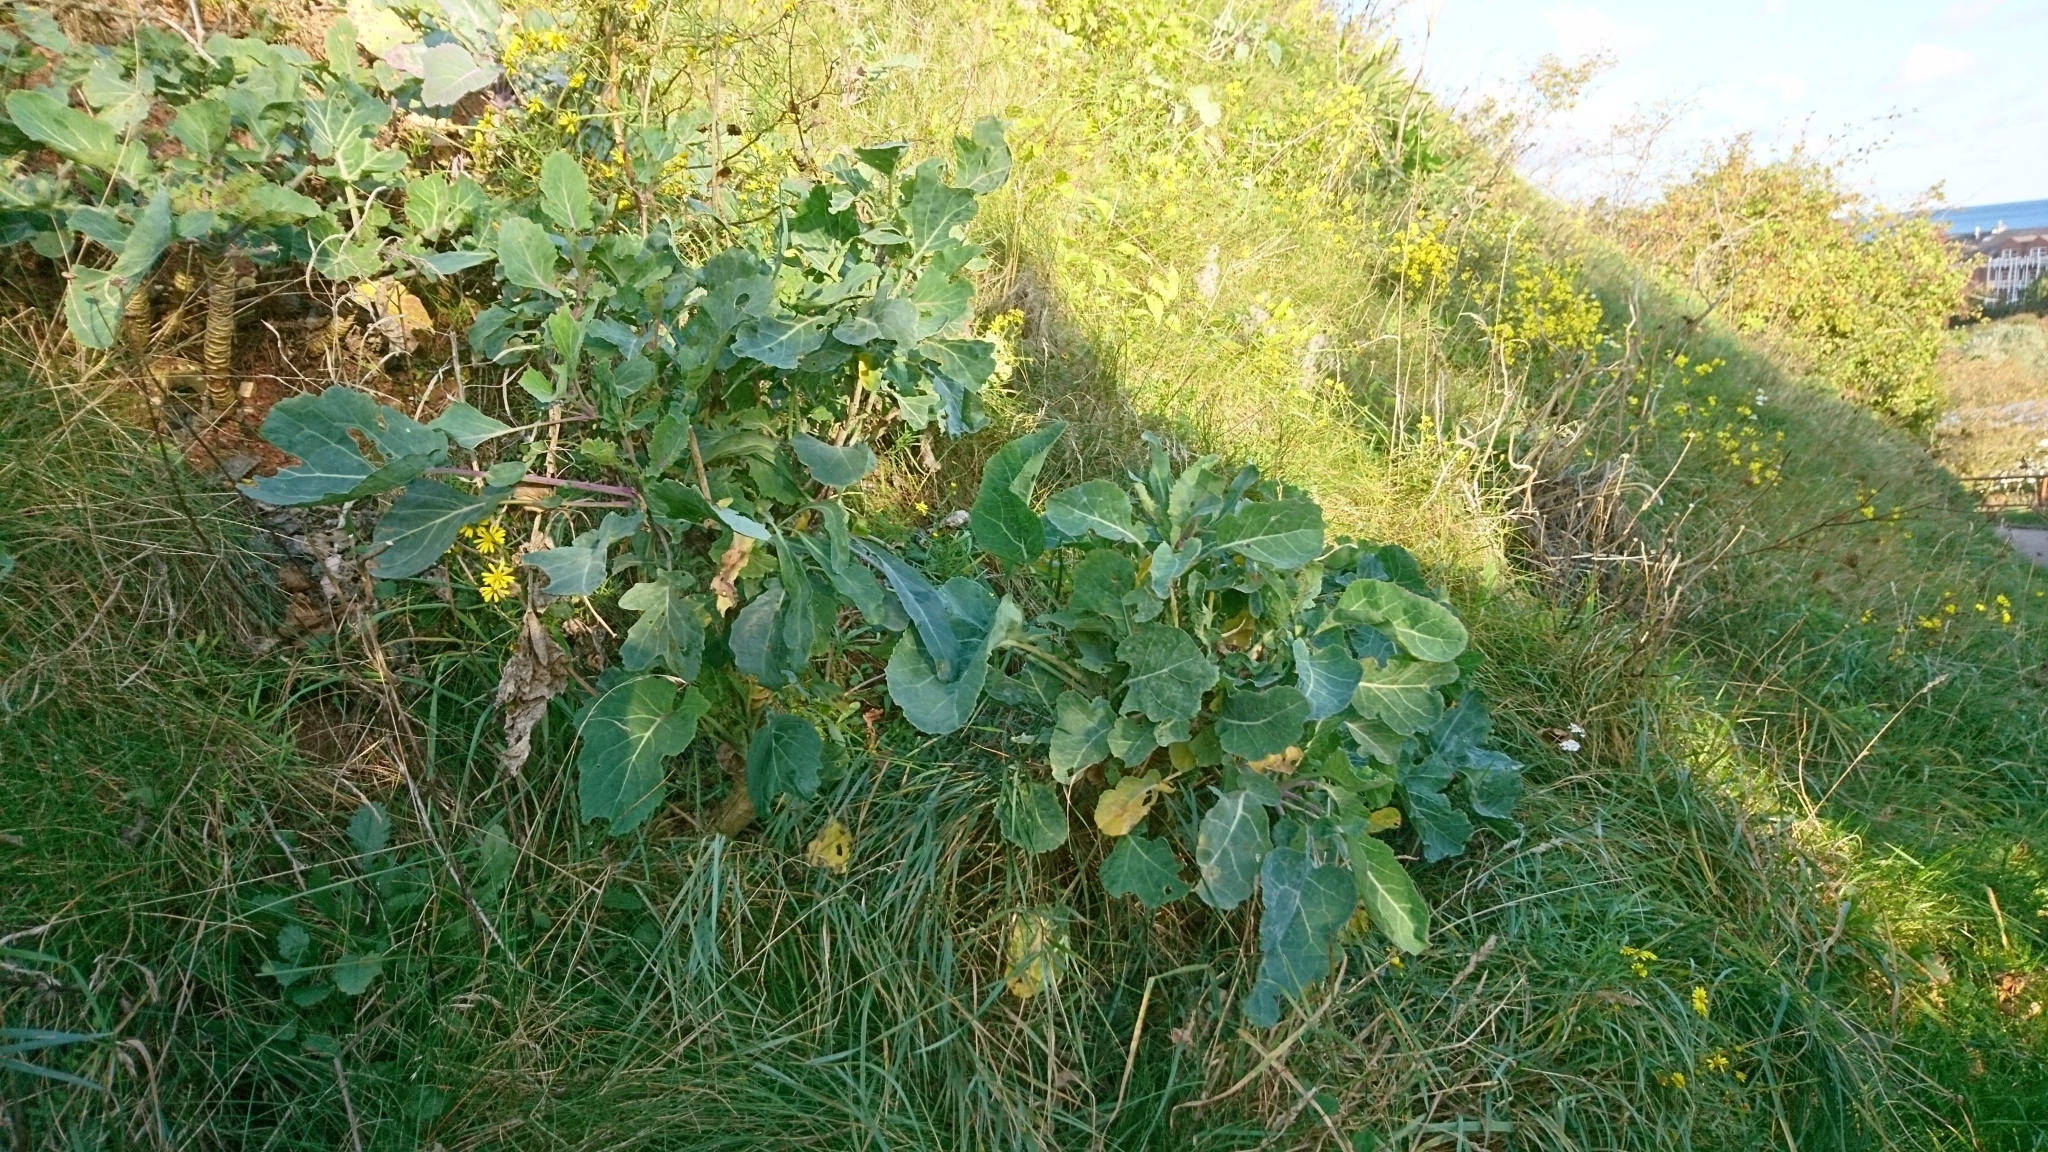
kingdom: Plantae
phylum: Tracheophyta
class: Magnoliopsida
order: Brassicales
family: Brassicaceae
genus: Brassica
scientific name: Brassica oleracea
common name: Cabbage
